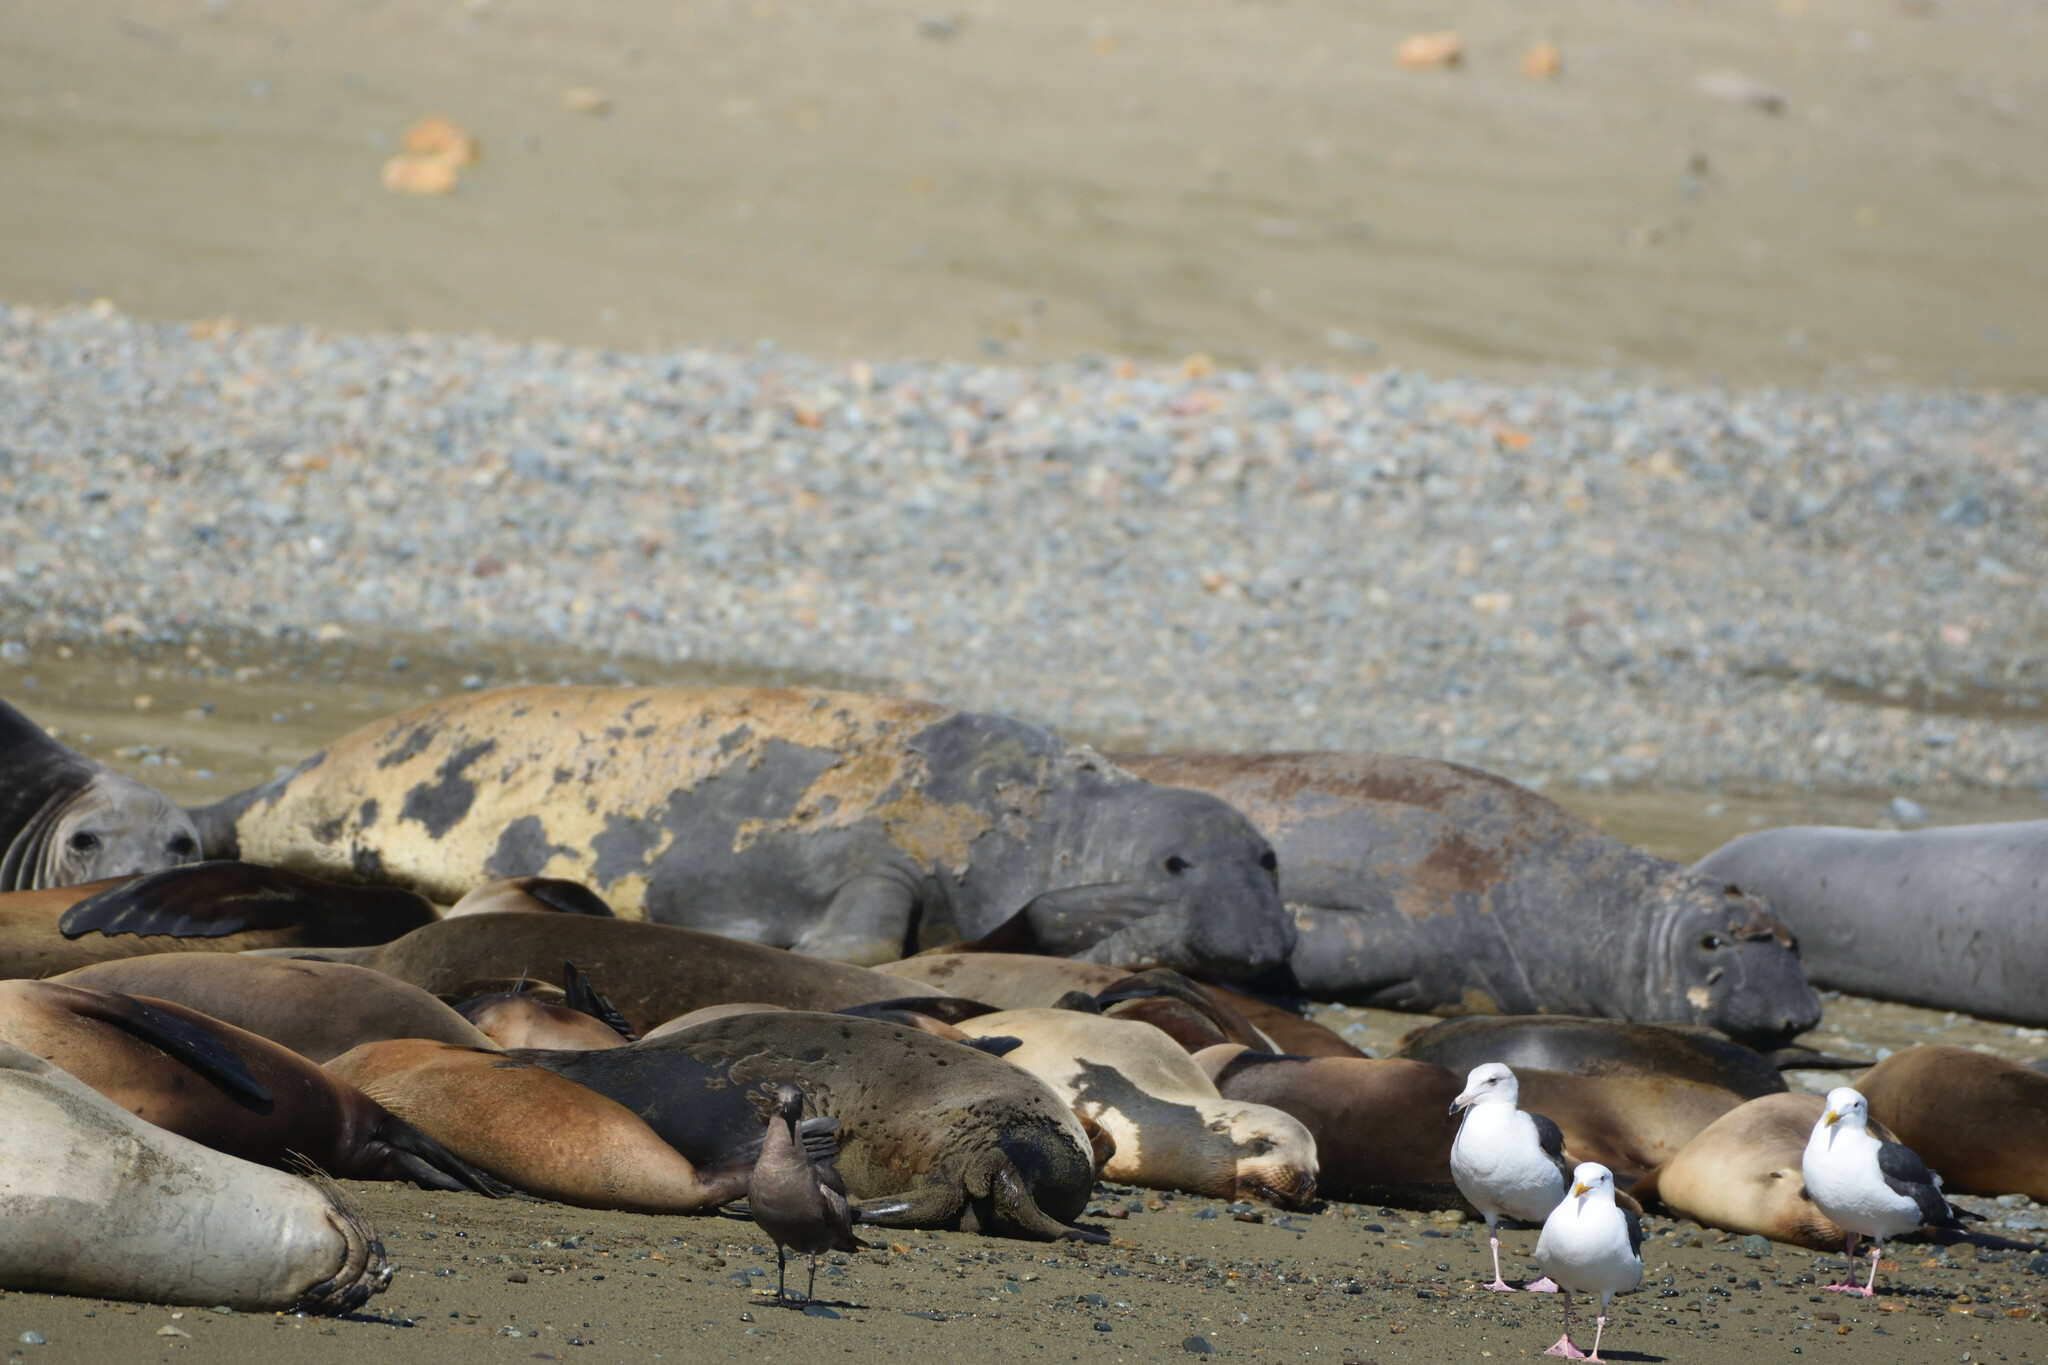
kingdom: Animalia
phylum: Chordata
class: Mammalia
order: Carnivora
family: Phocidae
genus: Mirounga
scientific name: Mirounga angustirostris
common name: Northern elephant seal
